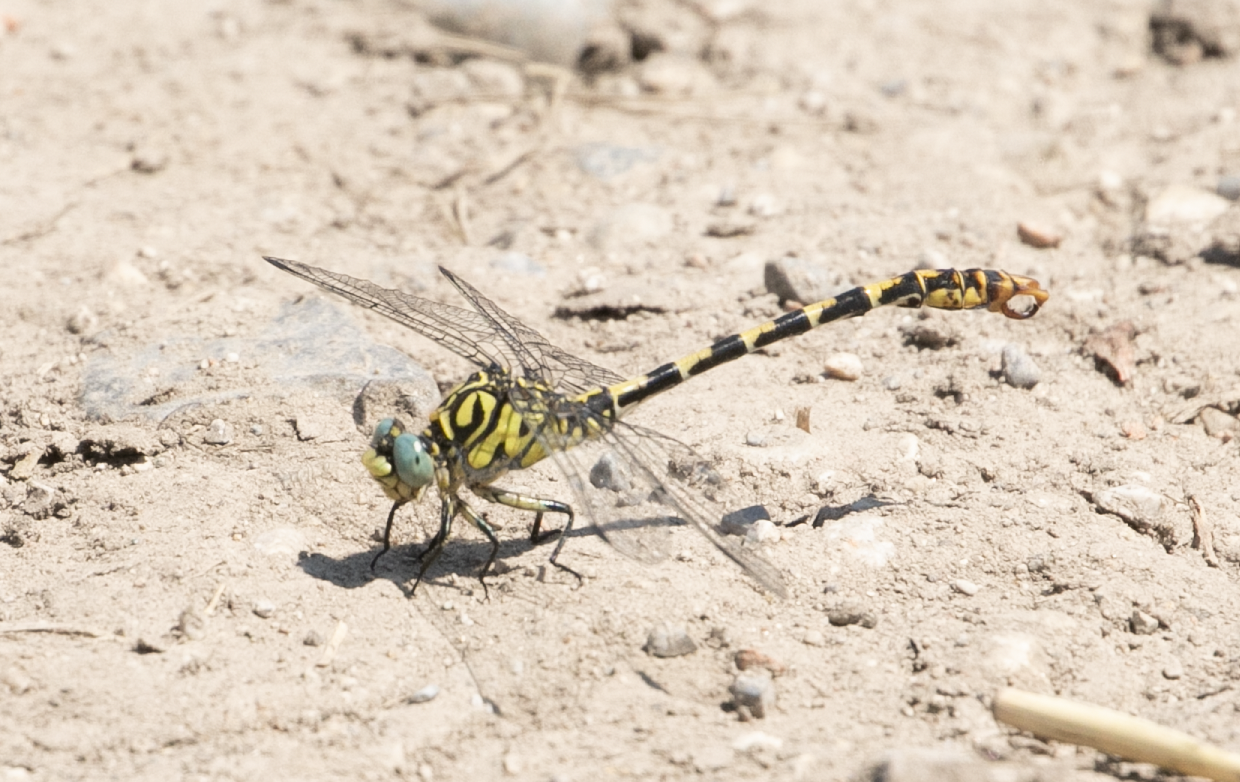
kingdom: Animalia
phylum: Arthropoda
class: Insecta
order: Odonata
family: Gomphidae
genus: Onychogomphus
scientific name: Onychogomphus forcipatus
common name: Small pincertail
